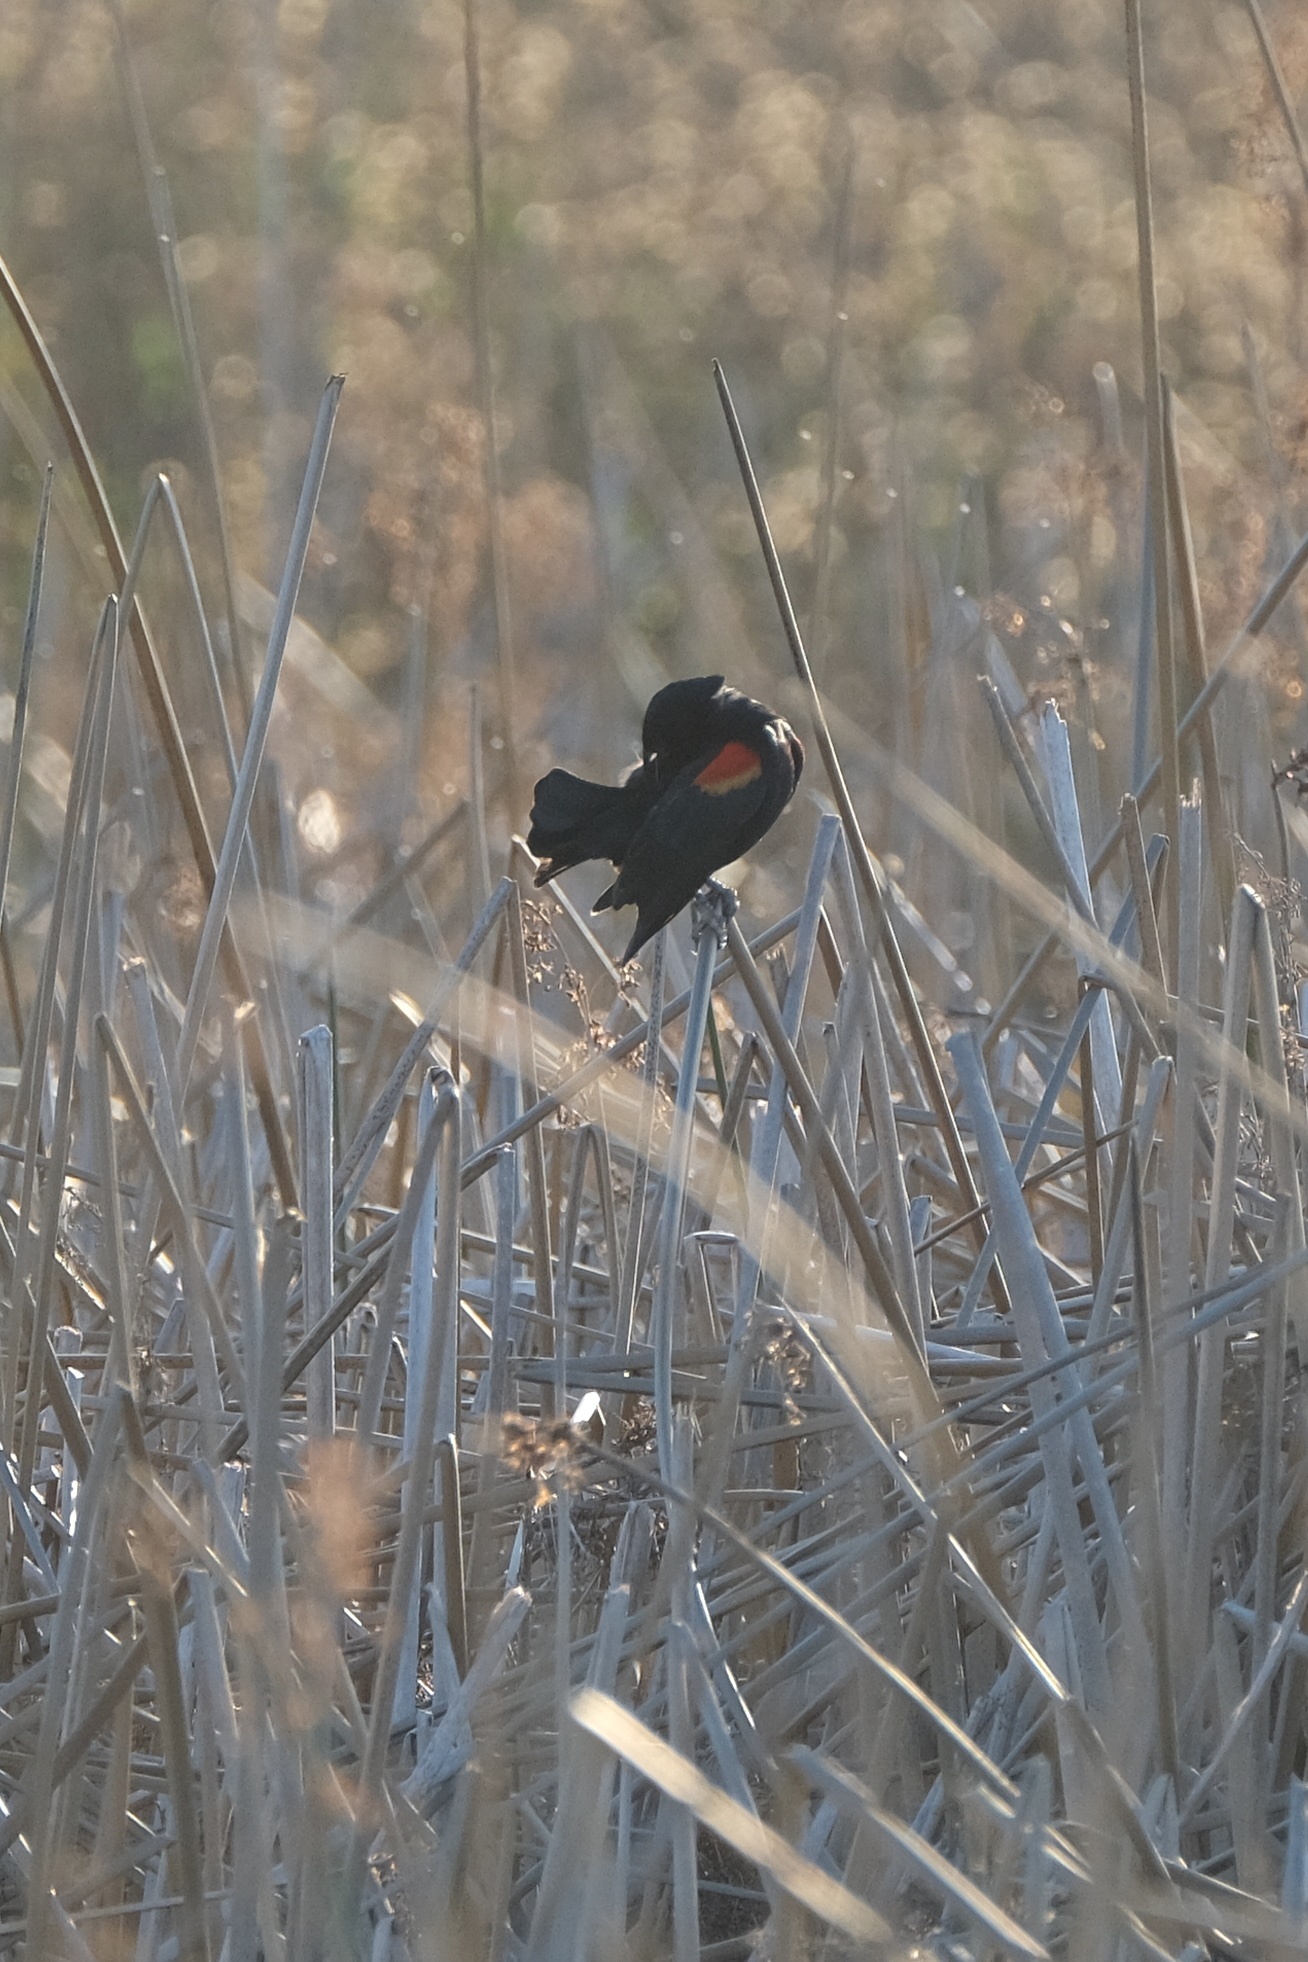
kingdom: Animalia
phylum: Chordata
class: Aves
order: Passeriformes
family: Icteridae
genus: Agelaius
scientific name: Agelaius phoeniceus
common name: Red-winged blackbird
